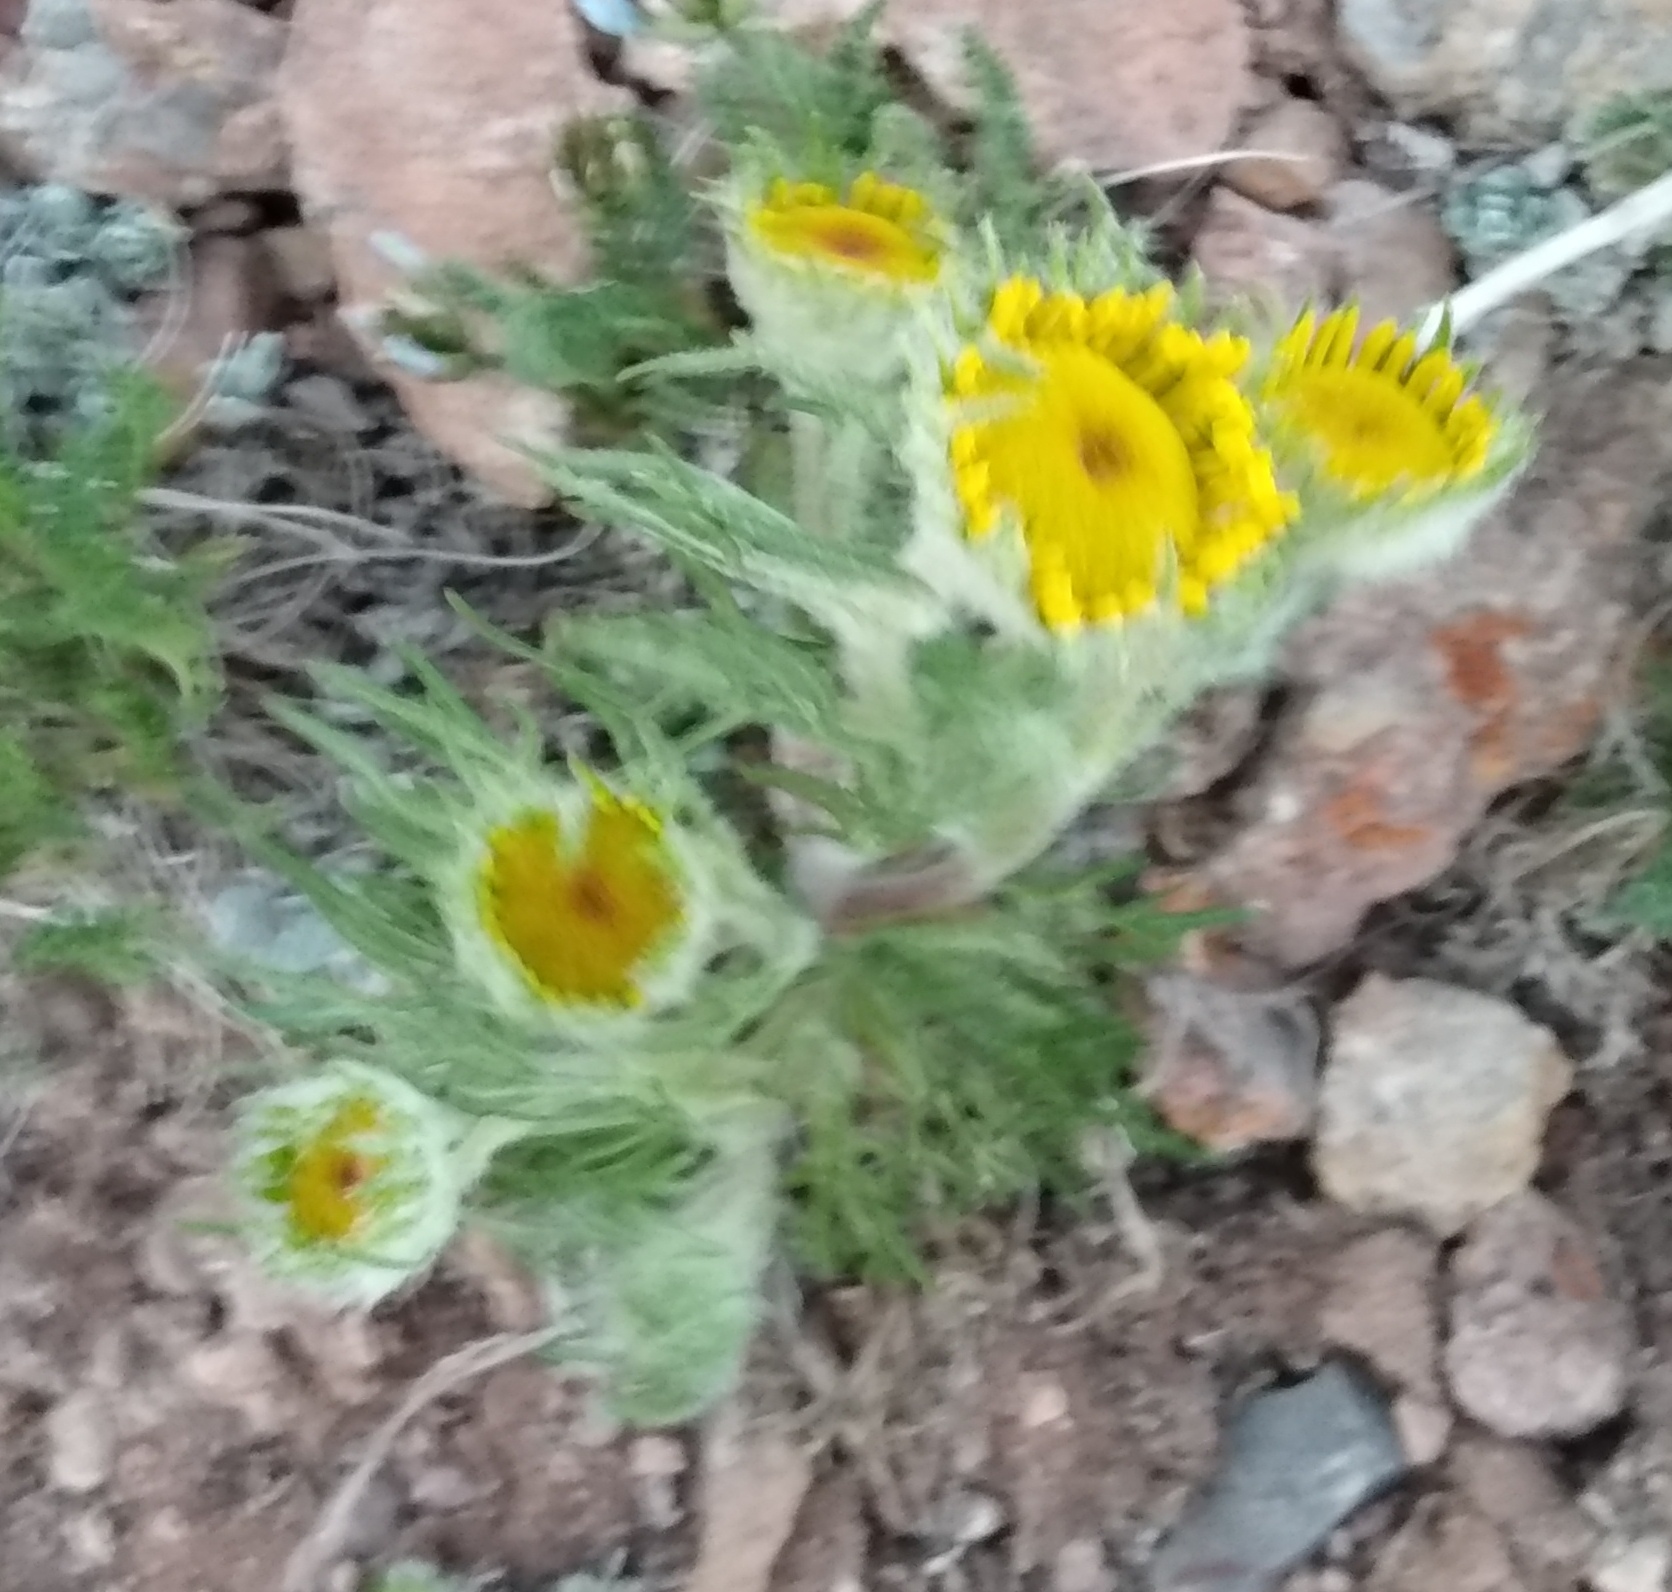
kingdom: Plantae
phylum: Tracheophyta
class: Magnoliopsida
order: Asterales
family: Asteraceae
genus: Hymenoxys
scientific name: Hymenoxys grandiflora
